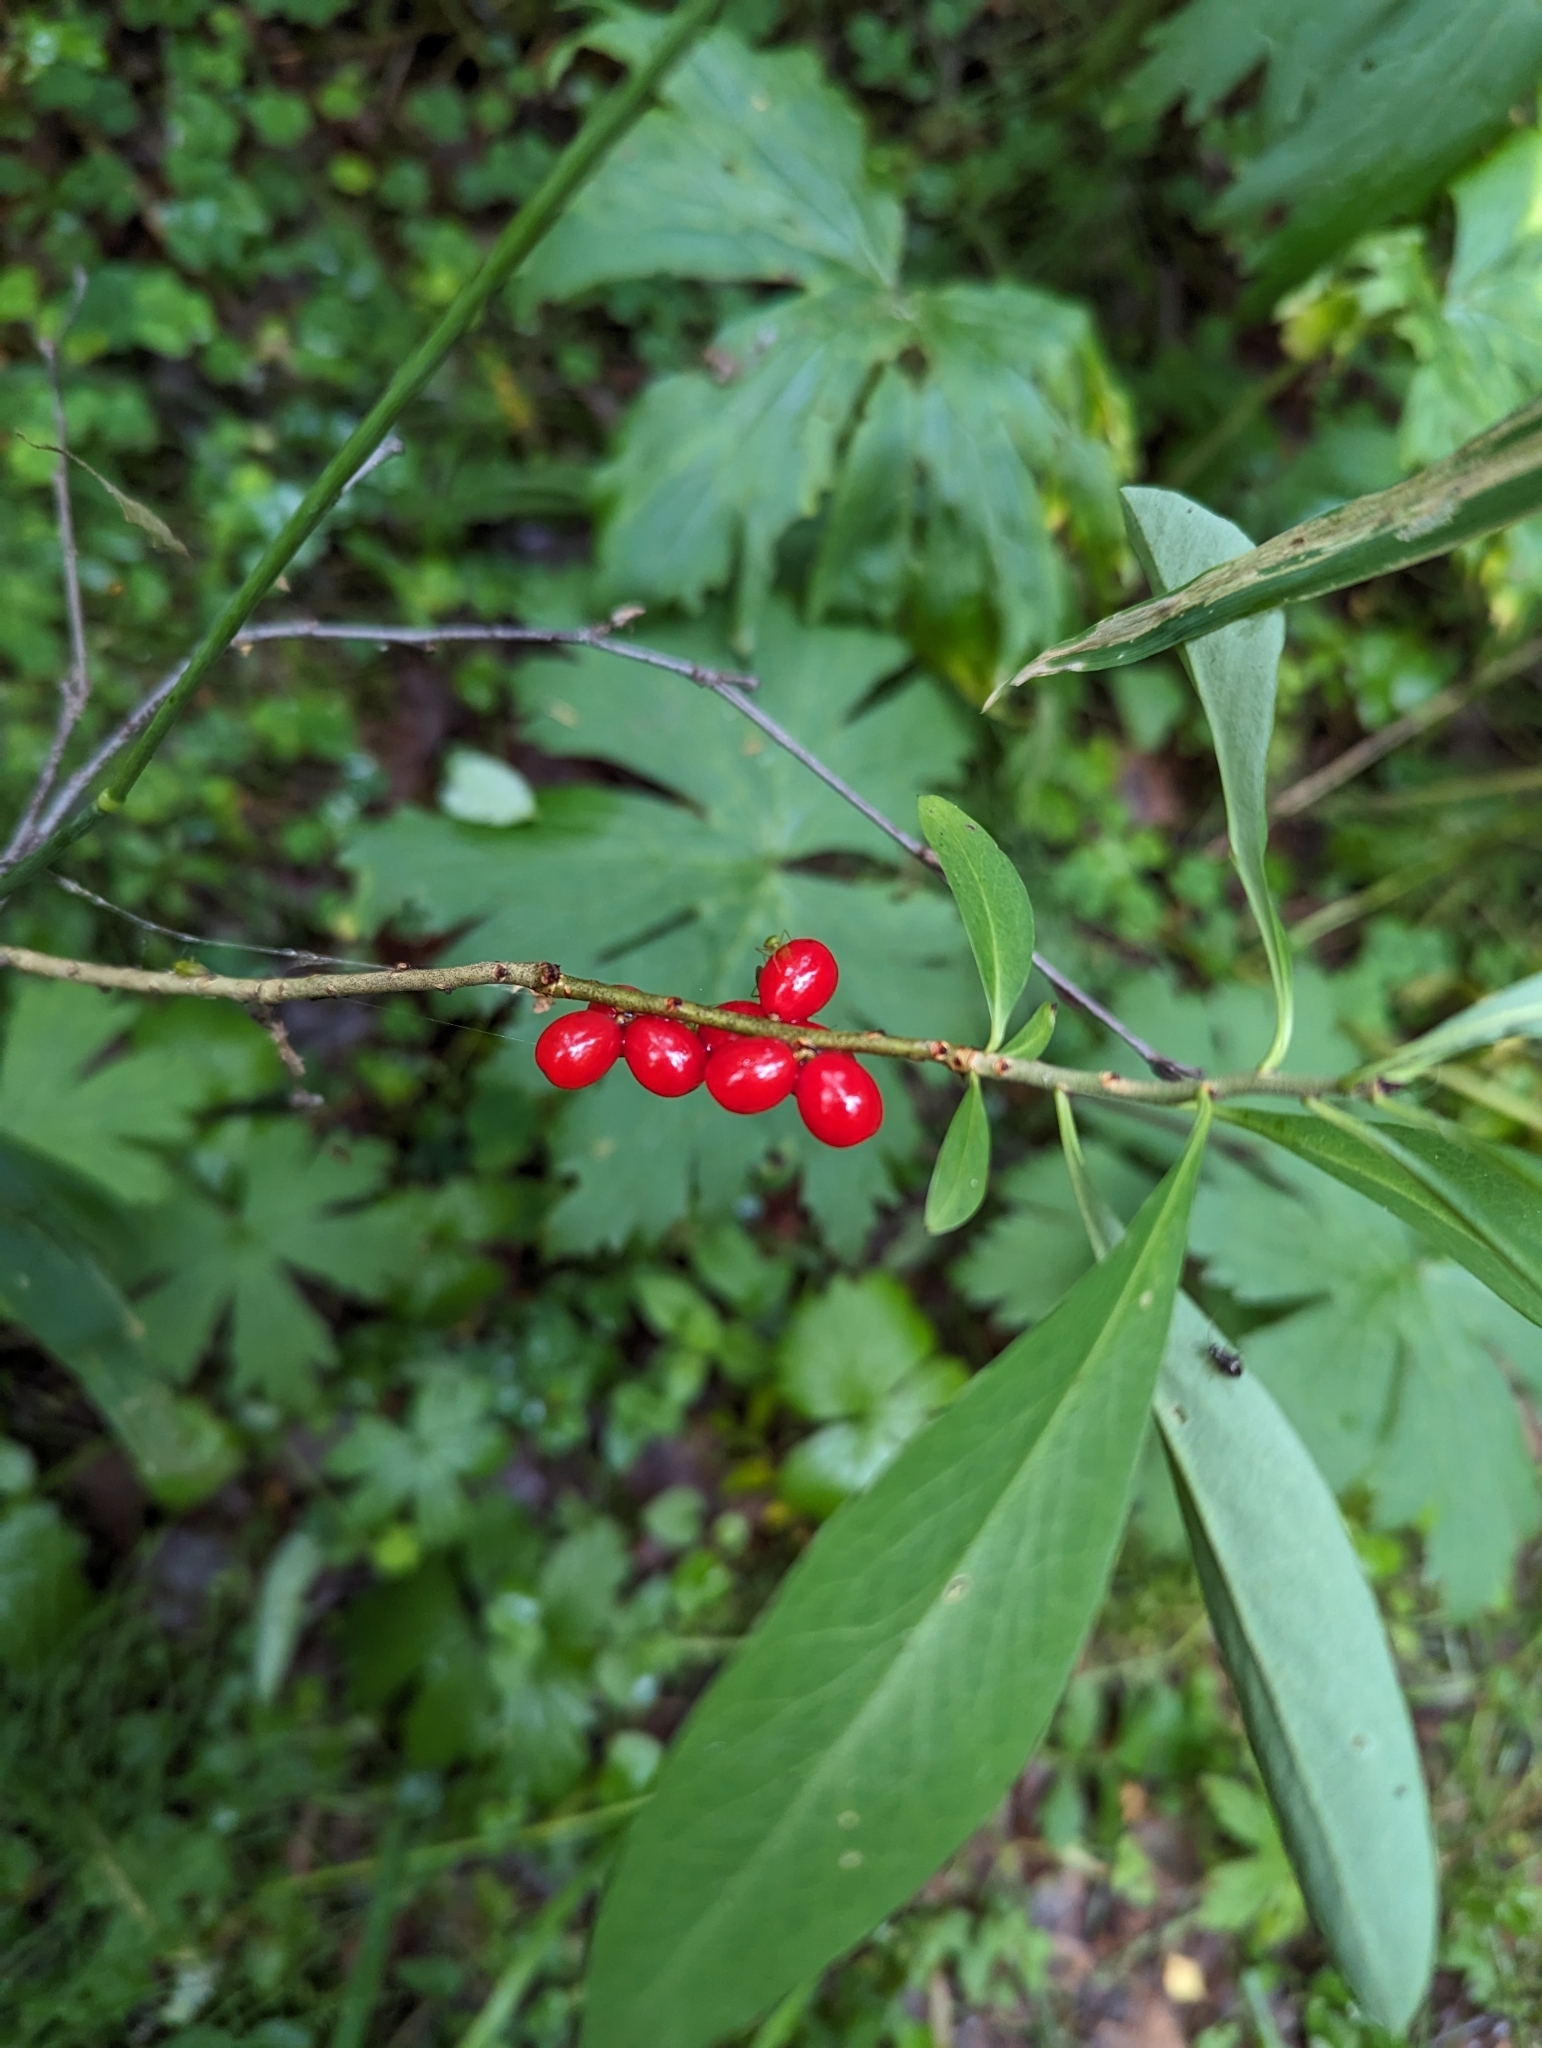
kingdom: Plantae
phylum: Tracheophyta
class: Magnoliopsida
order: Malvales
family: Thymelaeaceae
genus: Daphne
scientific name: Daphne mezereum
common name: Mezereon
